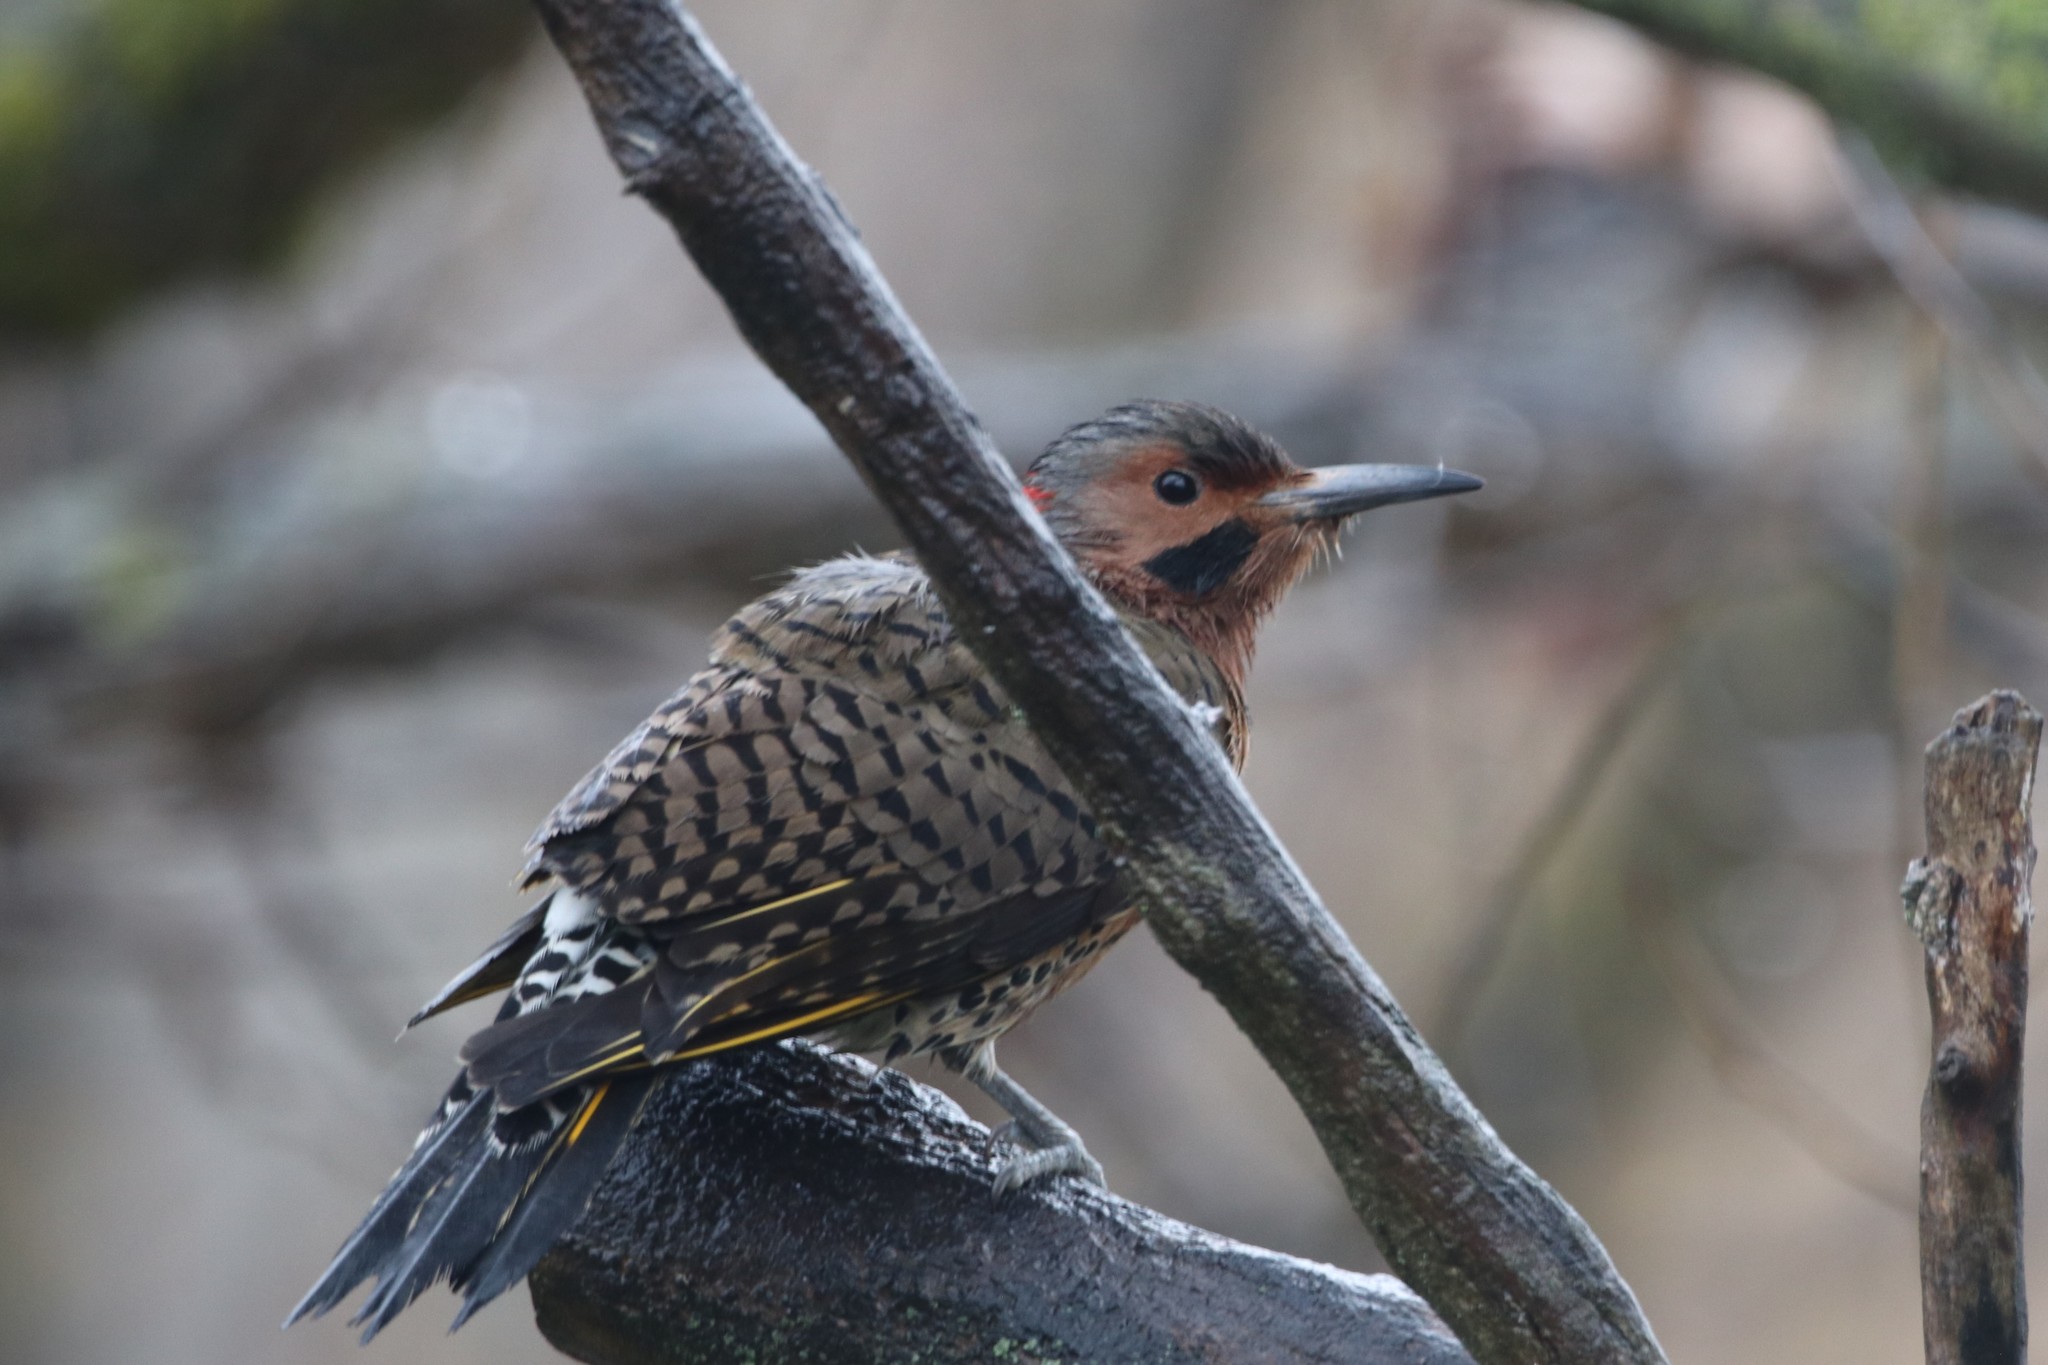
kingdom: Animalia
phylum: Chordata
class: Aves
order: Piciformes
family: Picidae
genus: Colaptes
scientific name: Colaptes auratus
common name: Northern flicker
